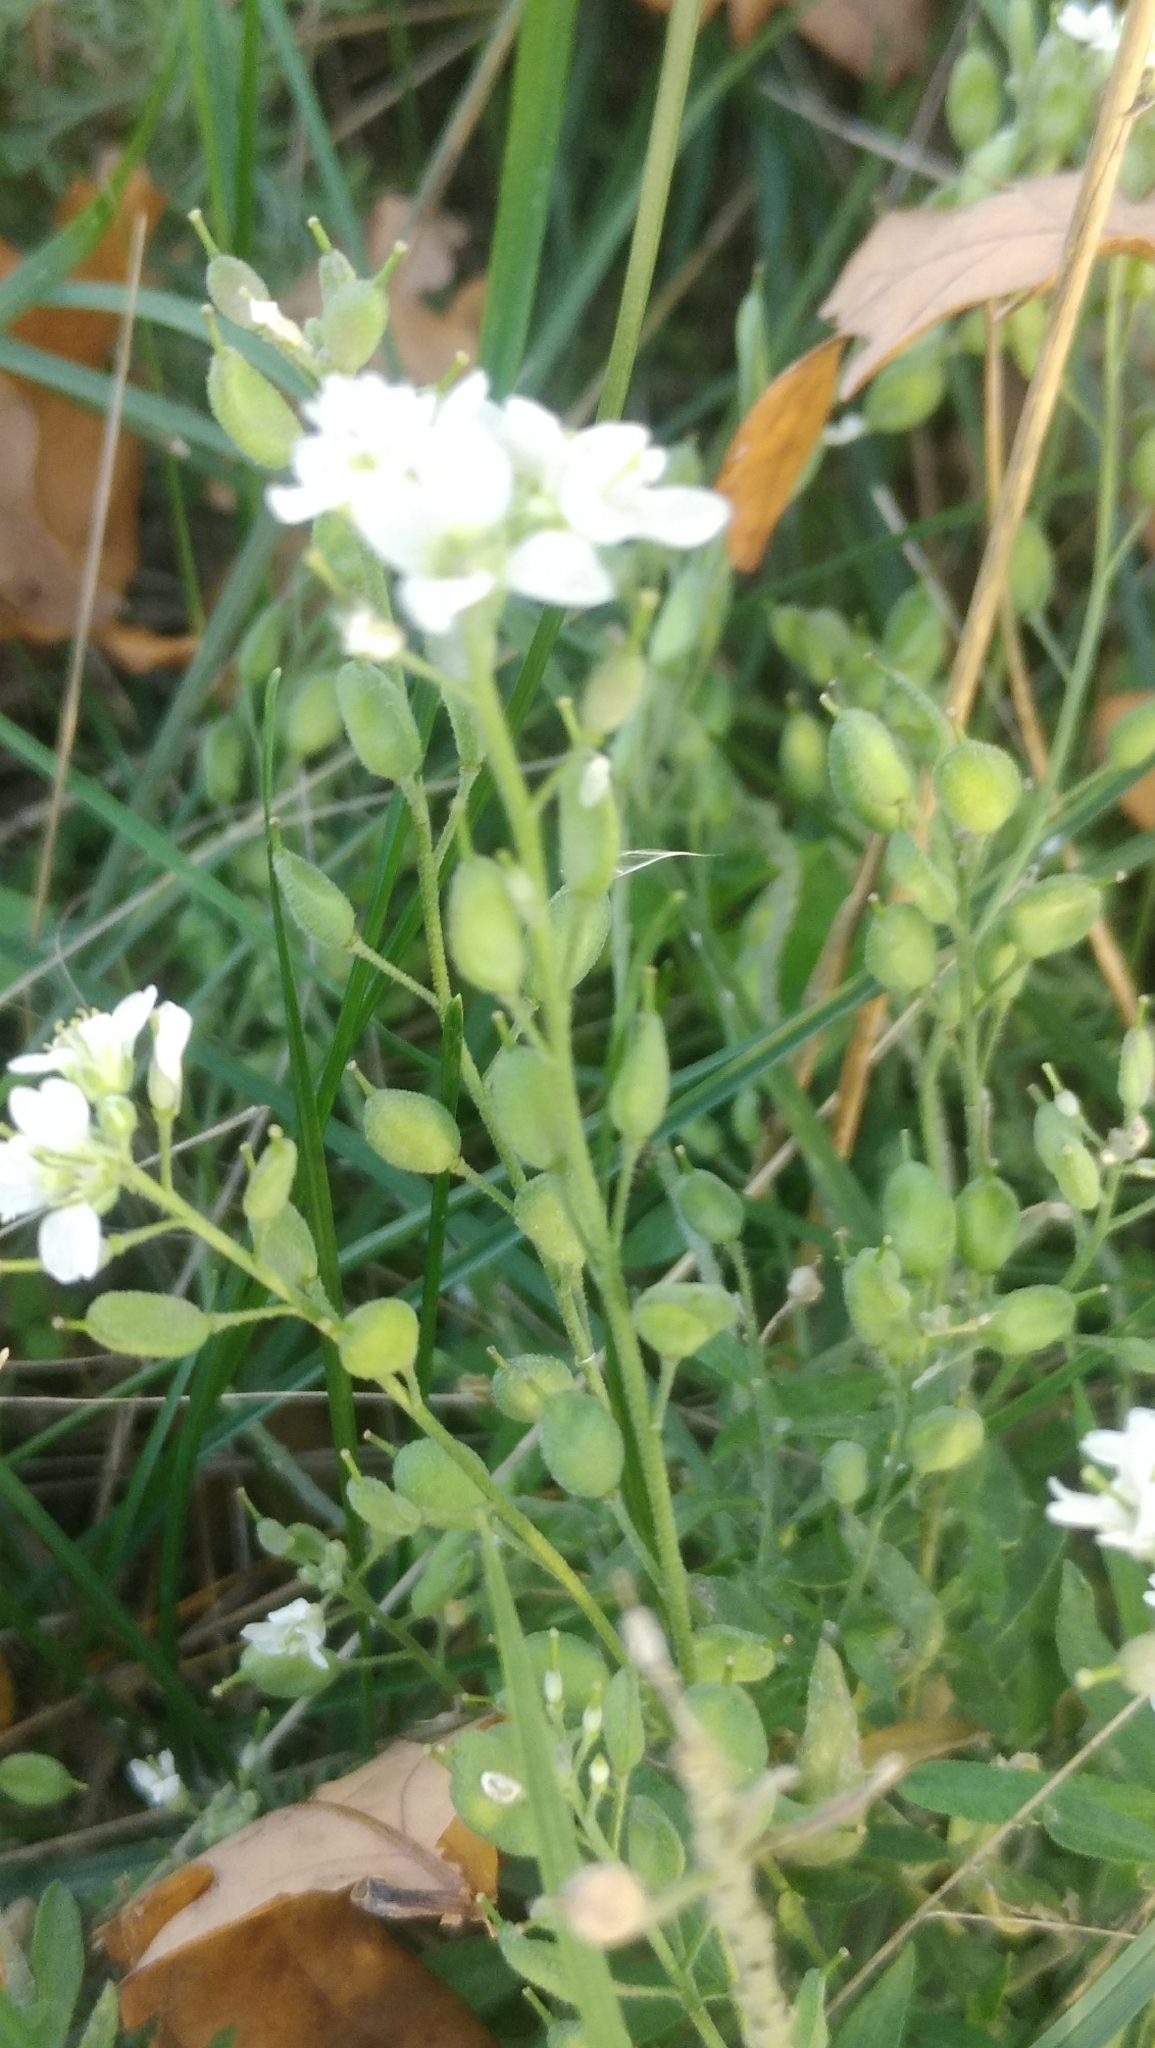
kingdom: Plantae
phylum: Tracheophyta
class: Magnoliopsida
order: Brassicales
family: Brassicaceae
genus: Berteroa
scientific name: Berteroa incana
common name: Hoary alison
